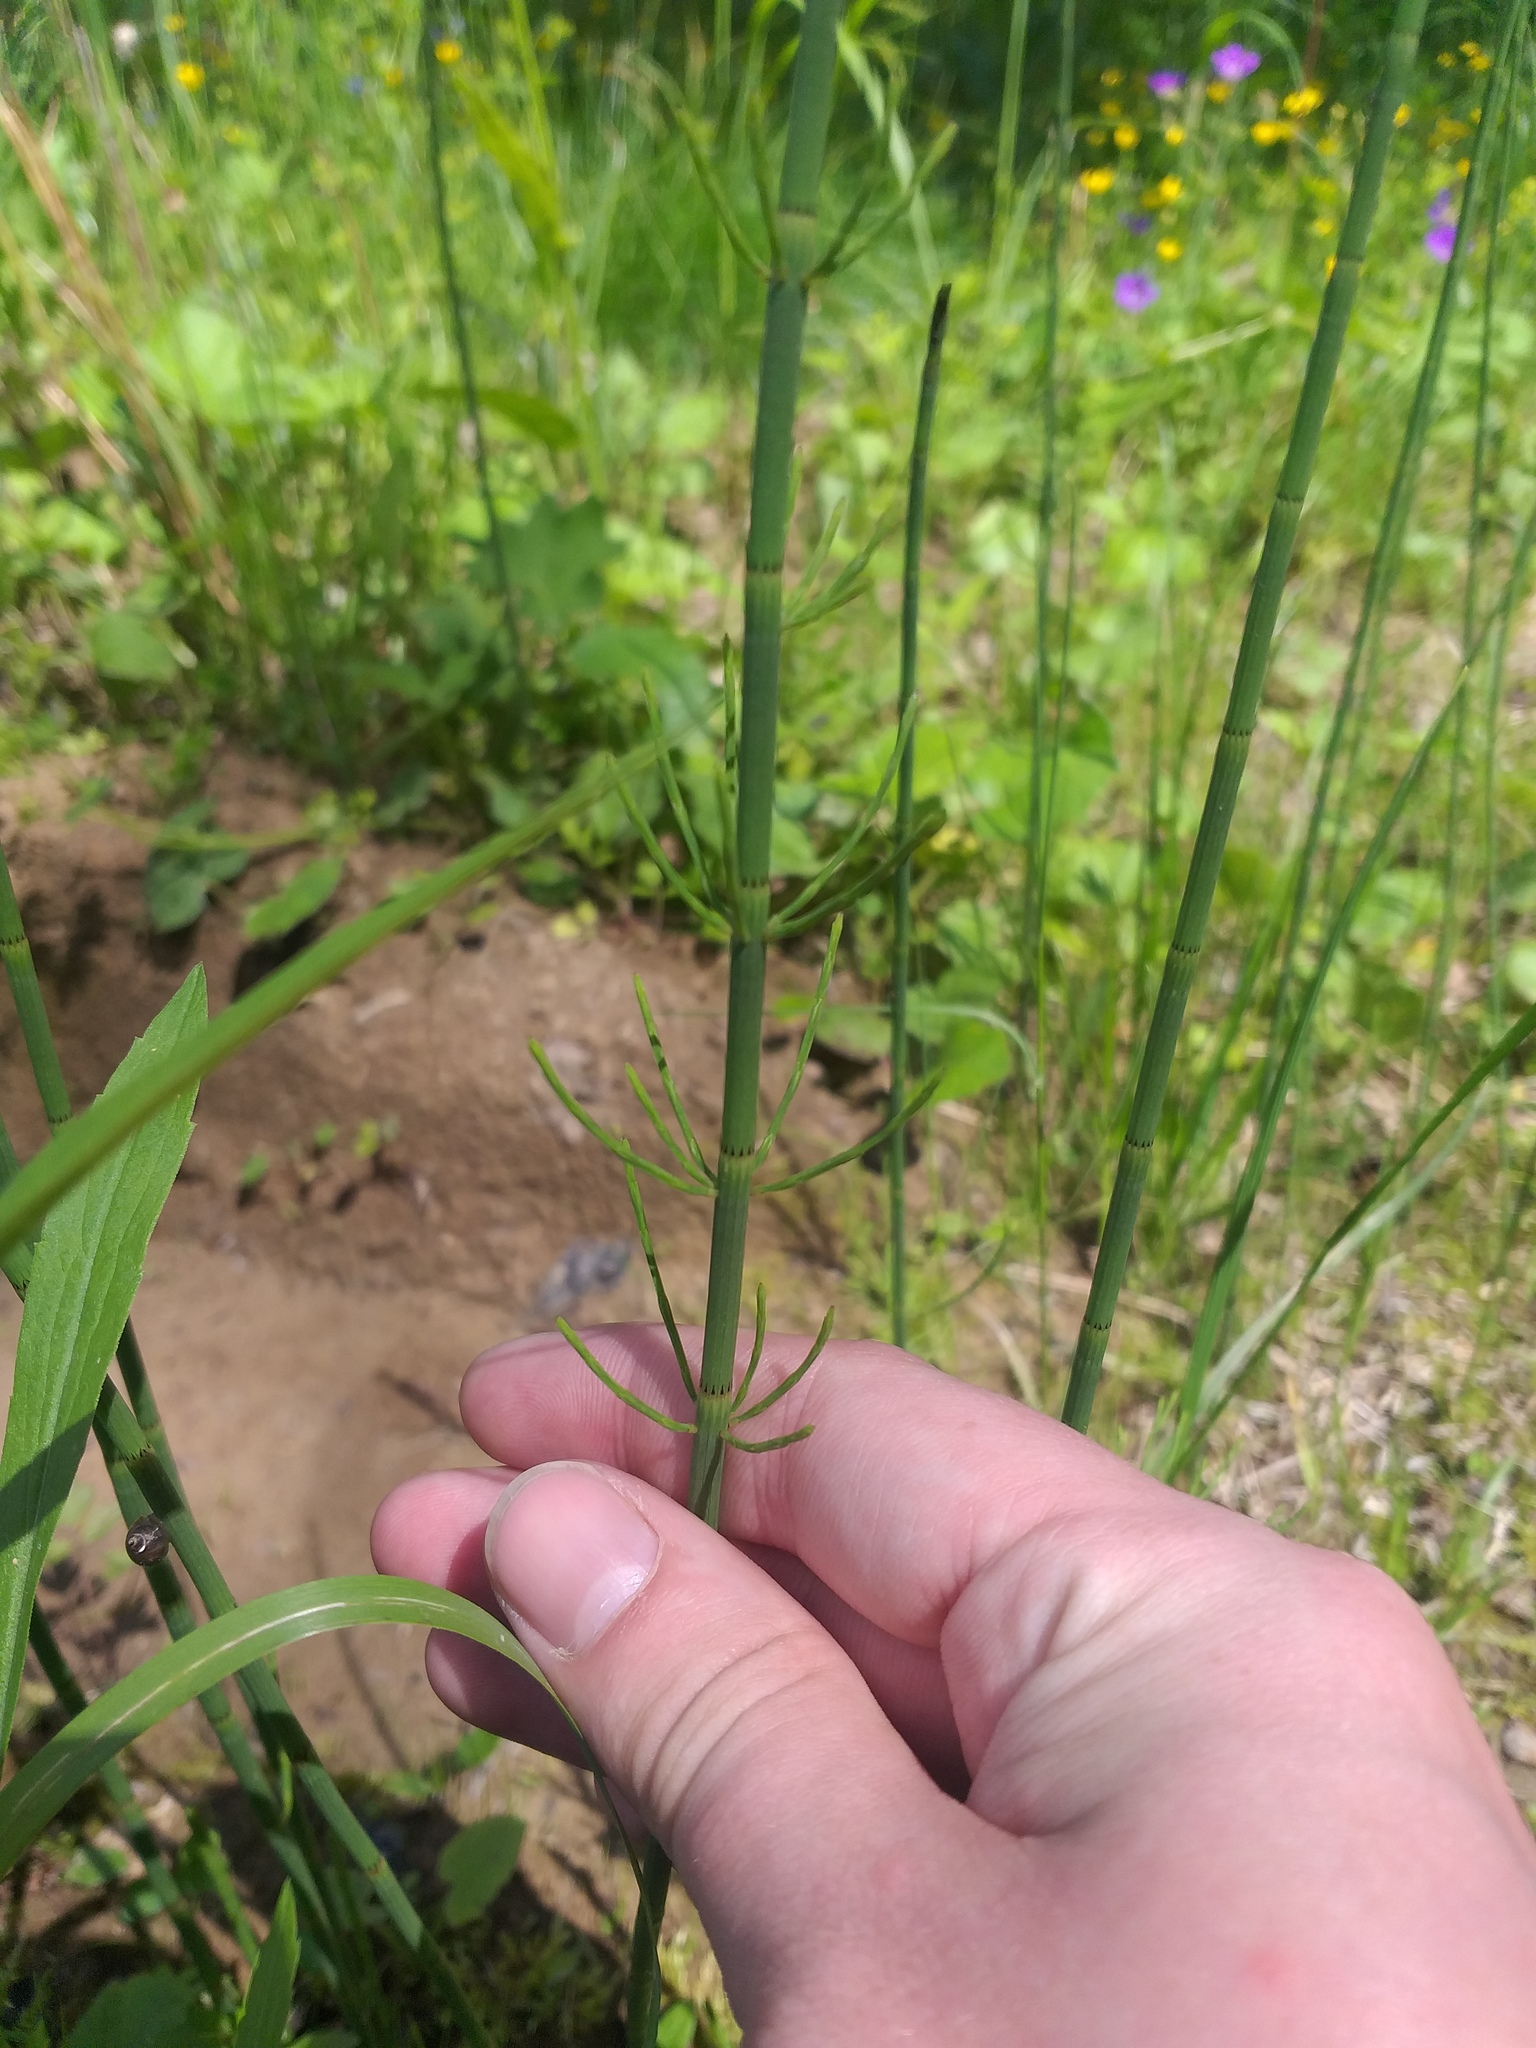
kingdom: Plantae
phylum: Tracheophyta
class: Polypodiopsida
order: Equisetales
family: Equisetaceae
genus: Equisetum
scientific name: Equisetum fluviatile
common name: Water horsetail
